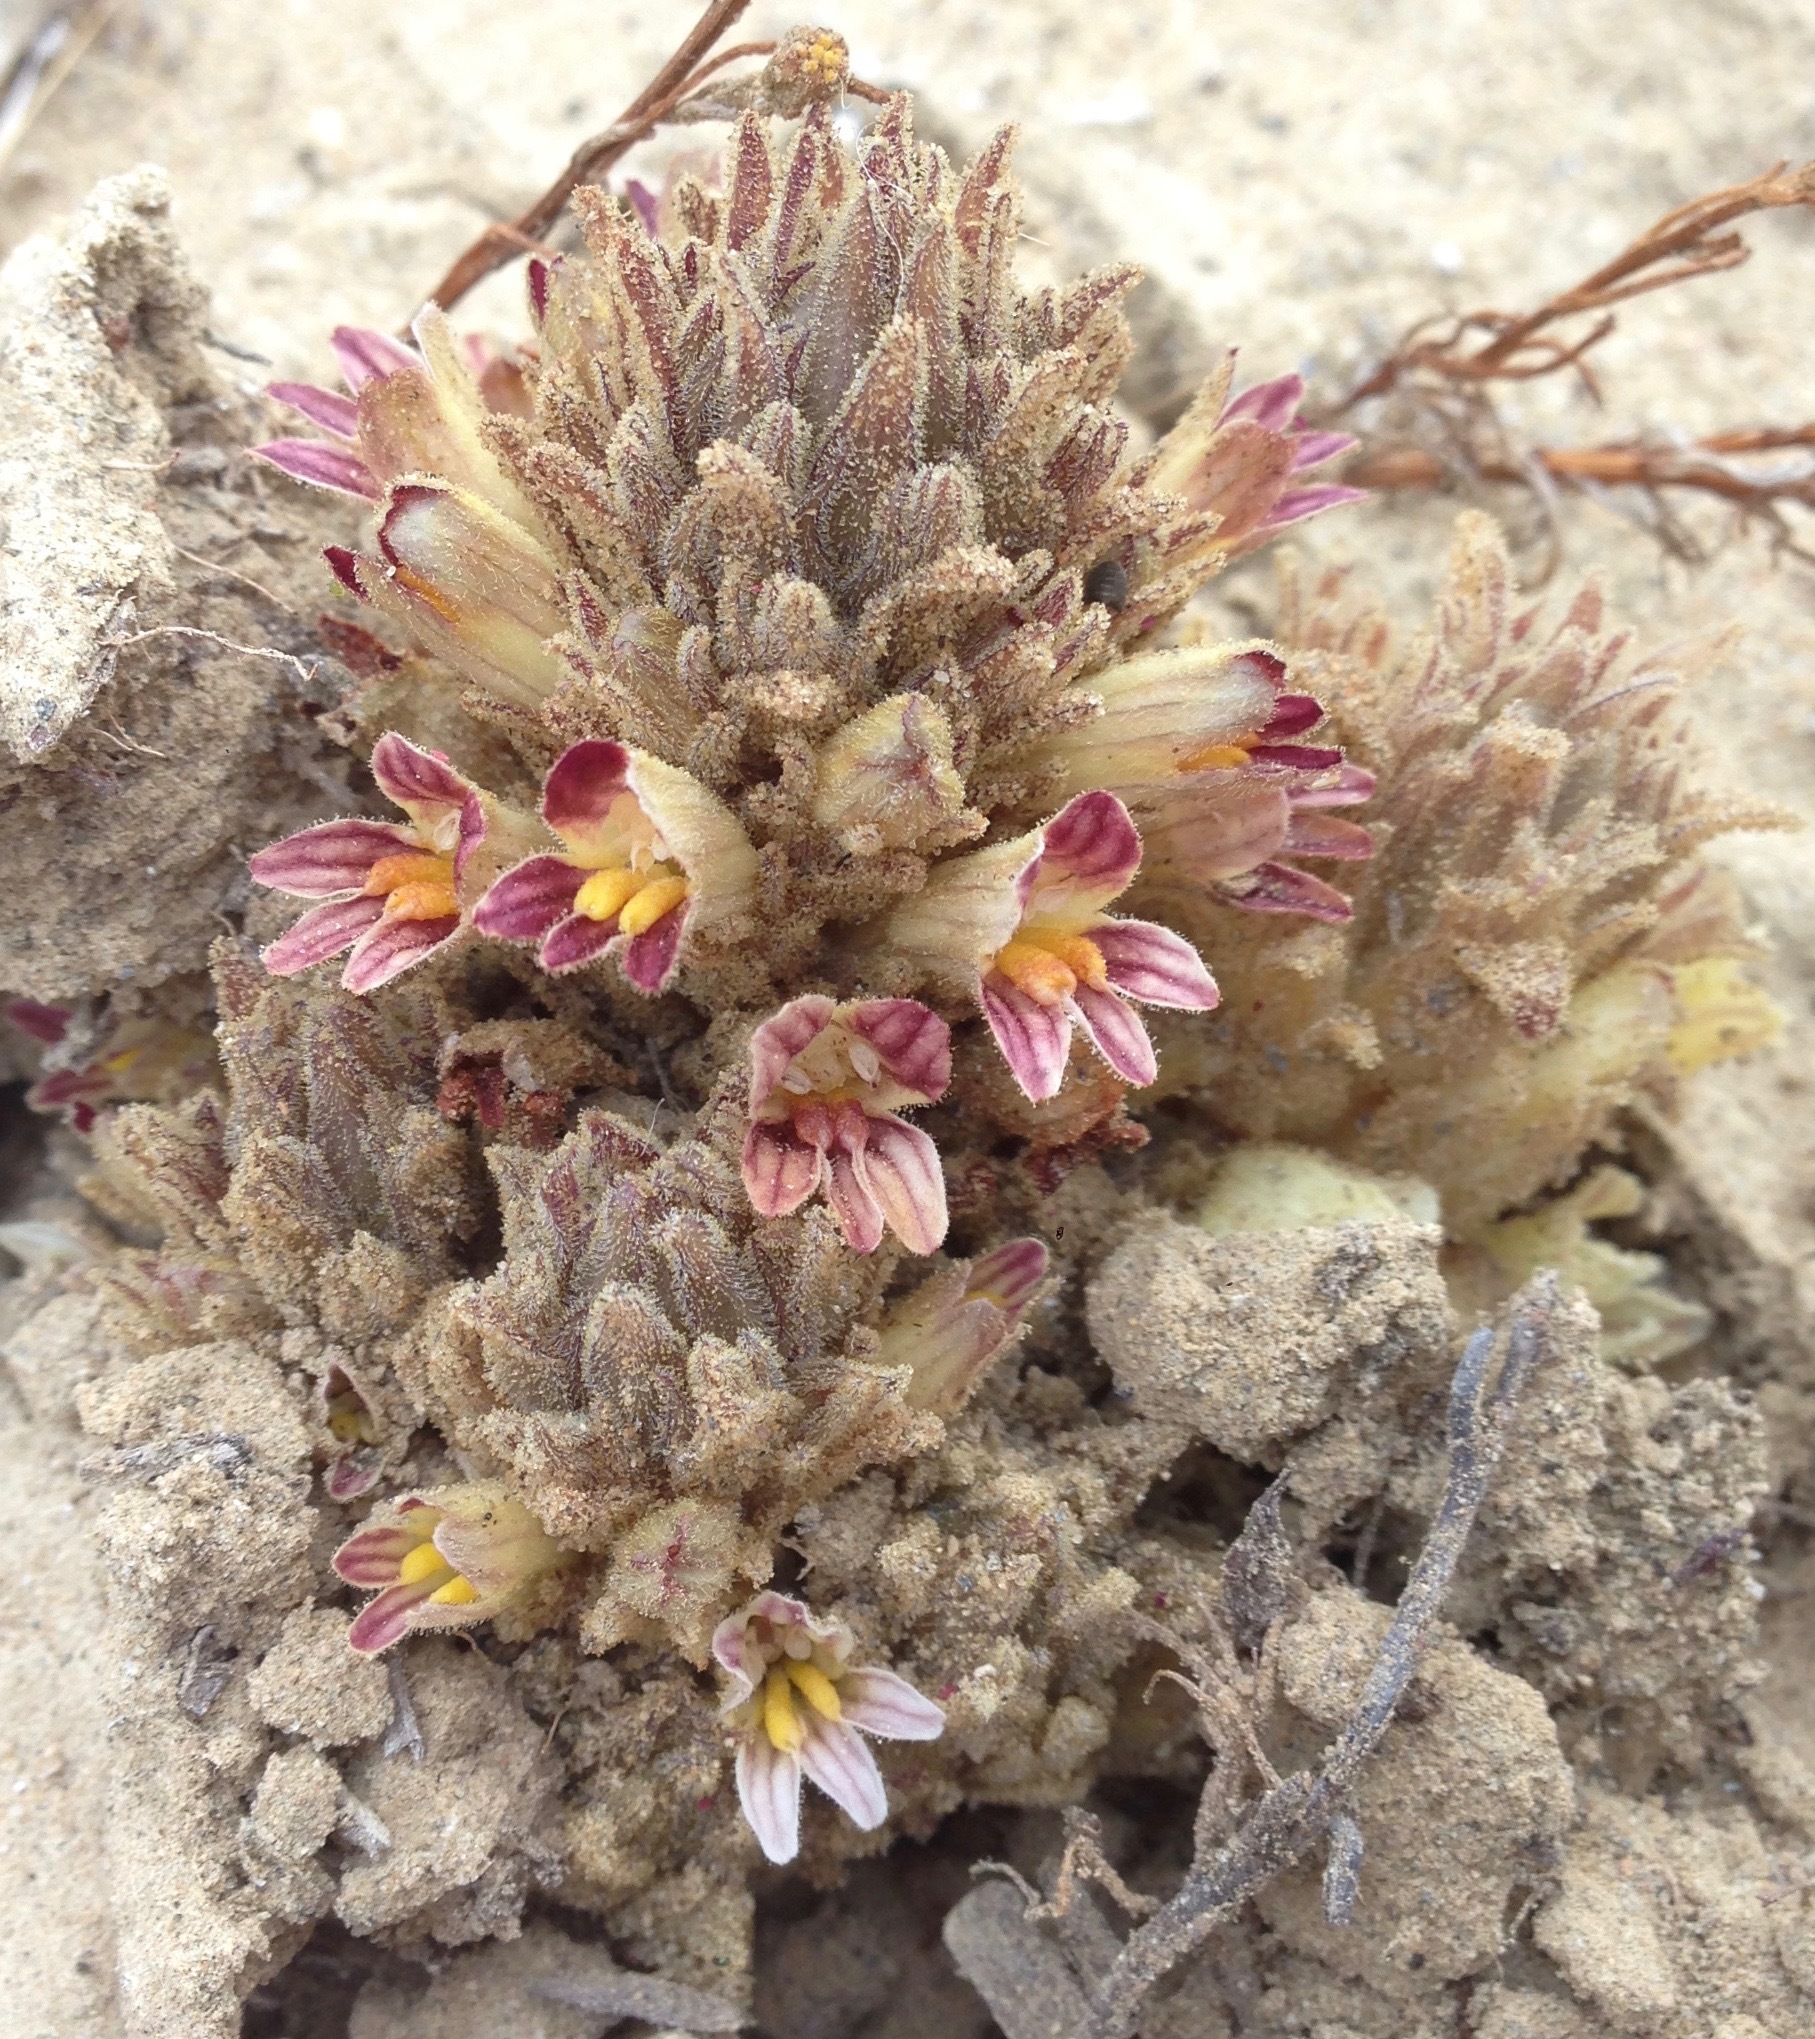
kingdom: Plantae
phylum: Tracheophyta
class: Magnoliopsida
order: Lamiales
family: Orobanchaceae
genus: Aphyllon
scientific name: Aphyllon parishii
